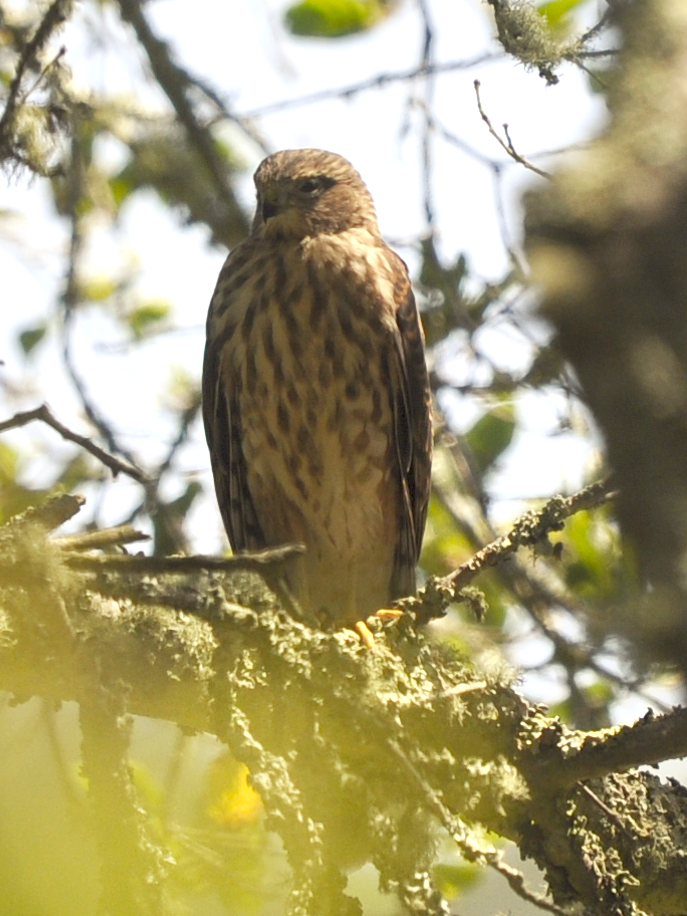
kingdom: Animalia
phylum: Chordata
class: Aves
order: Accipitriformes
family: Accipitridae
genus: Accipiter
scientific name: Accipiter striatus
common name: Sharp-shinned hawk
